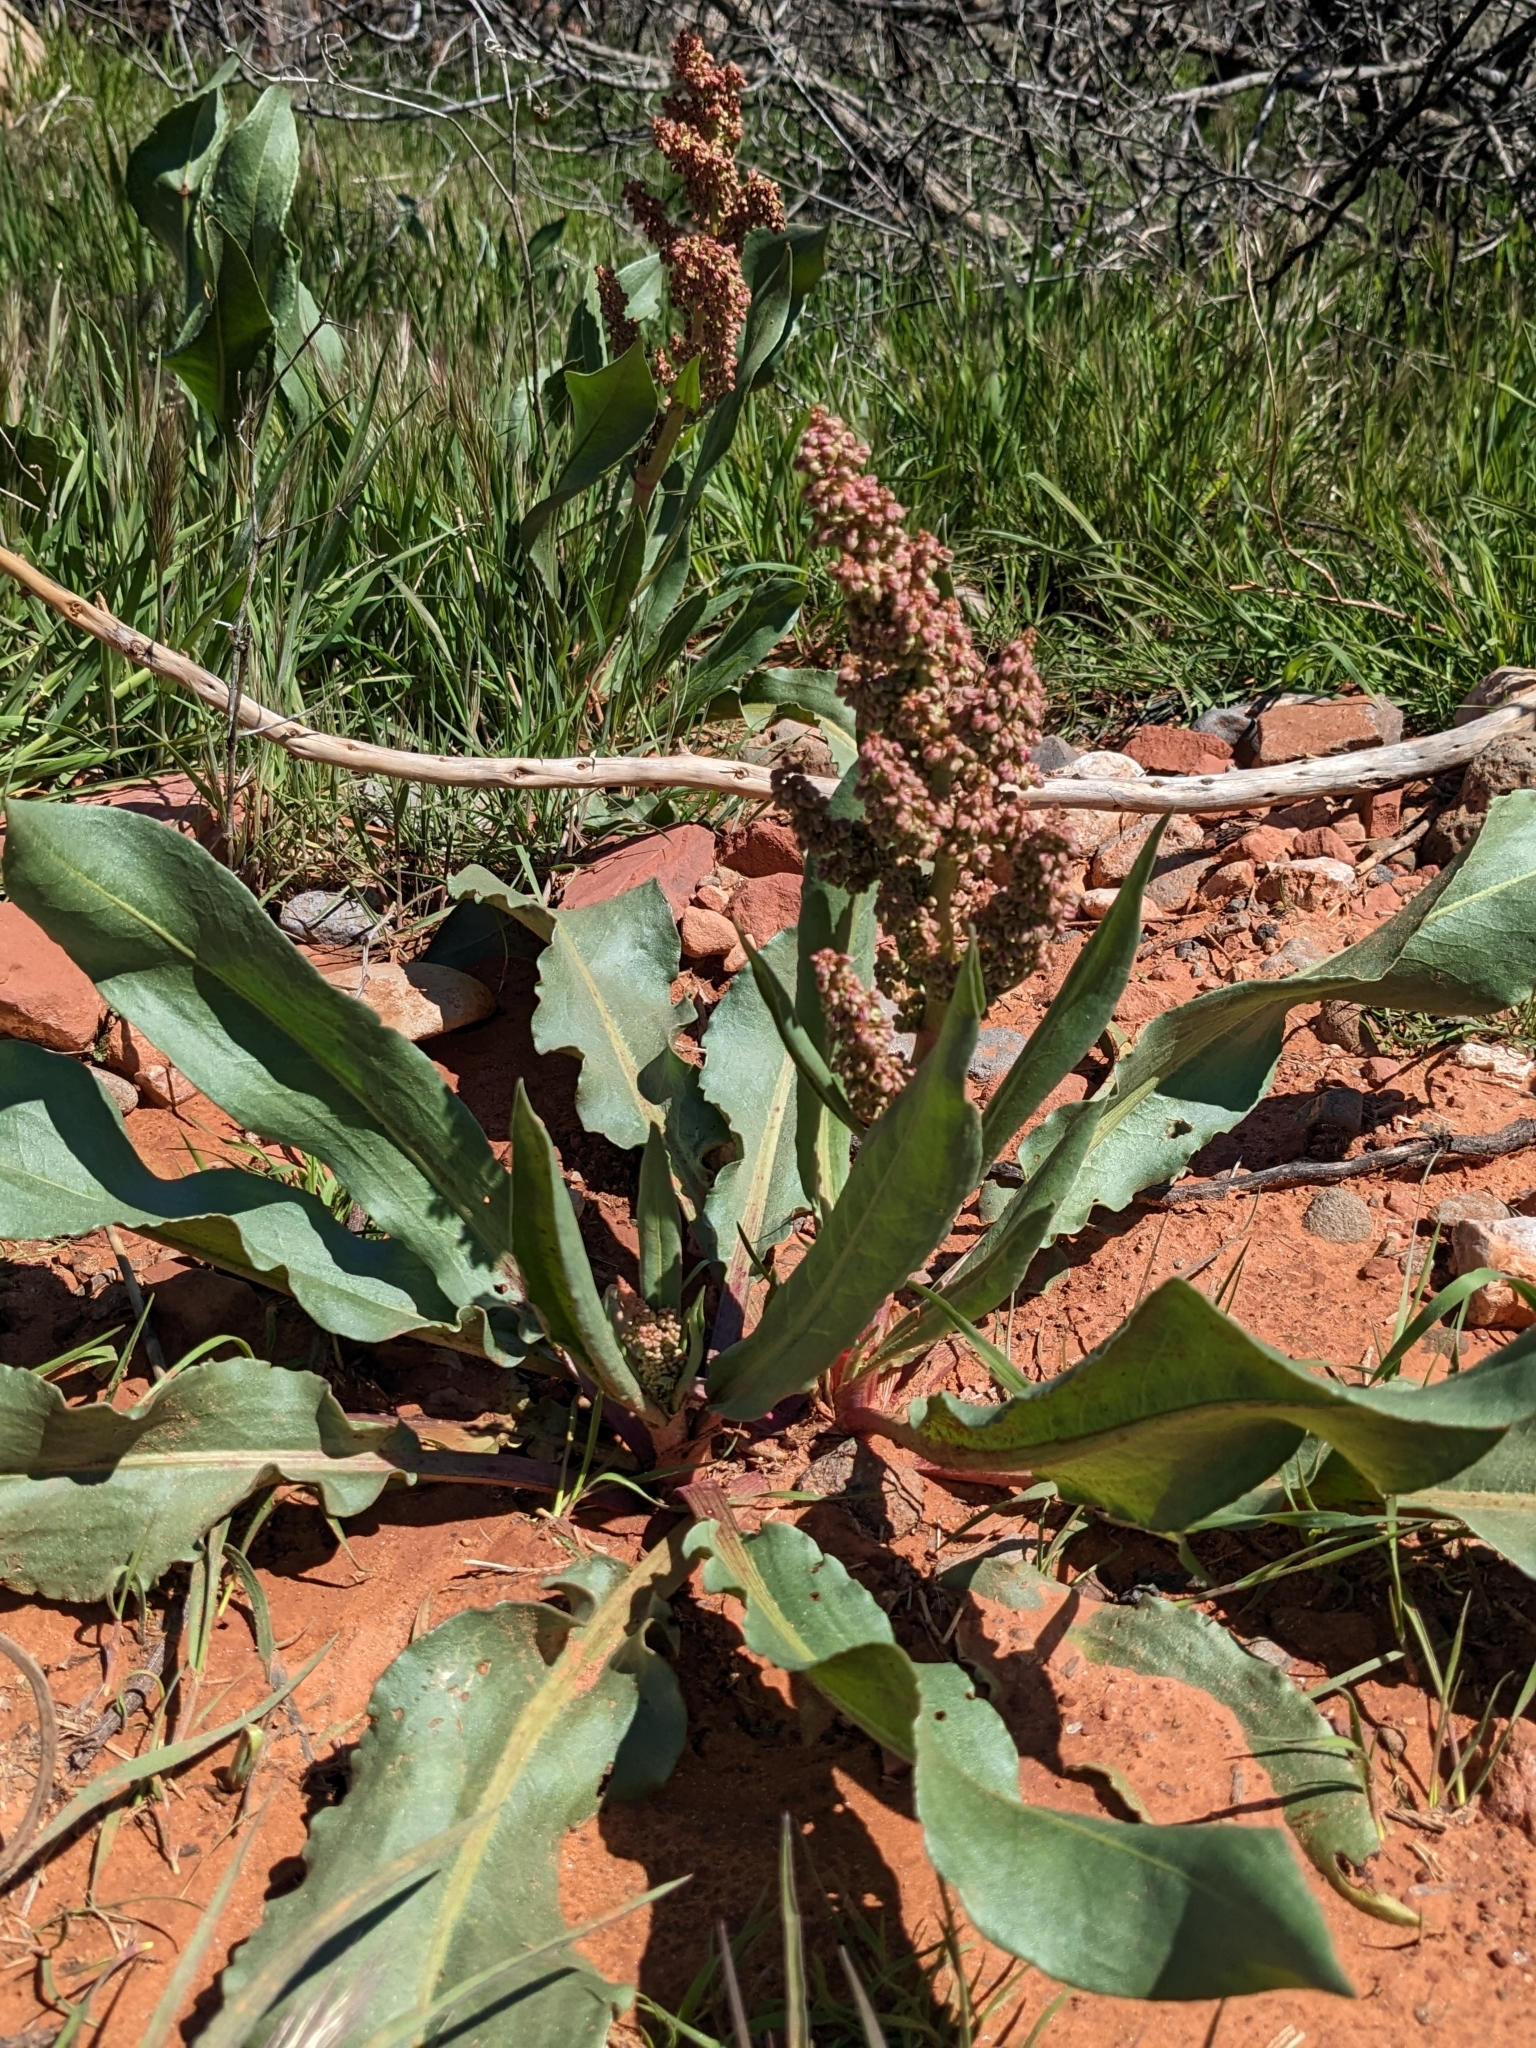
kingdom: Plantae
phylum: Tracheophyta
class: Magnoliopsida
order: Caryophyllales
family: Polygonaceae
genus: Rumex
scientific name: Rumex hymenosepalus
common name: Ganagra
